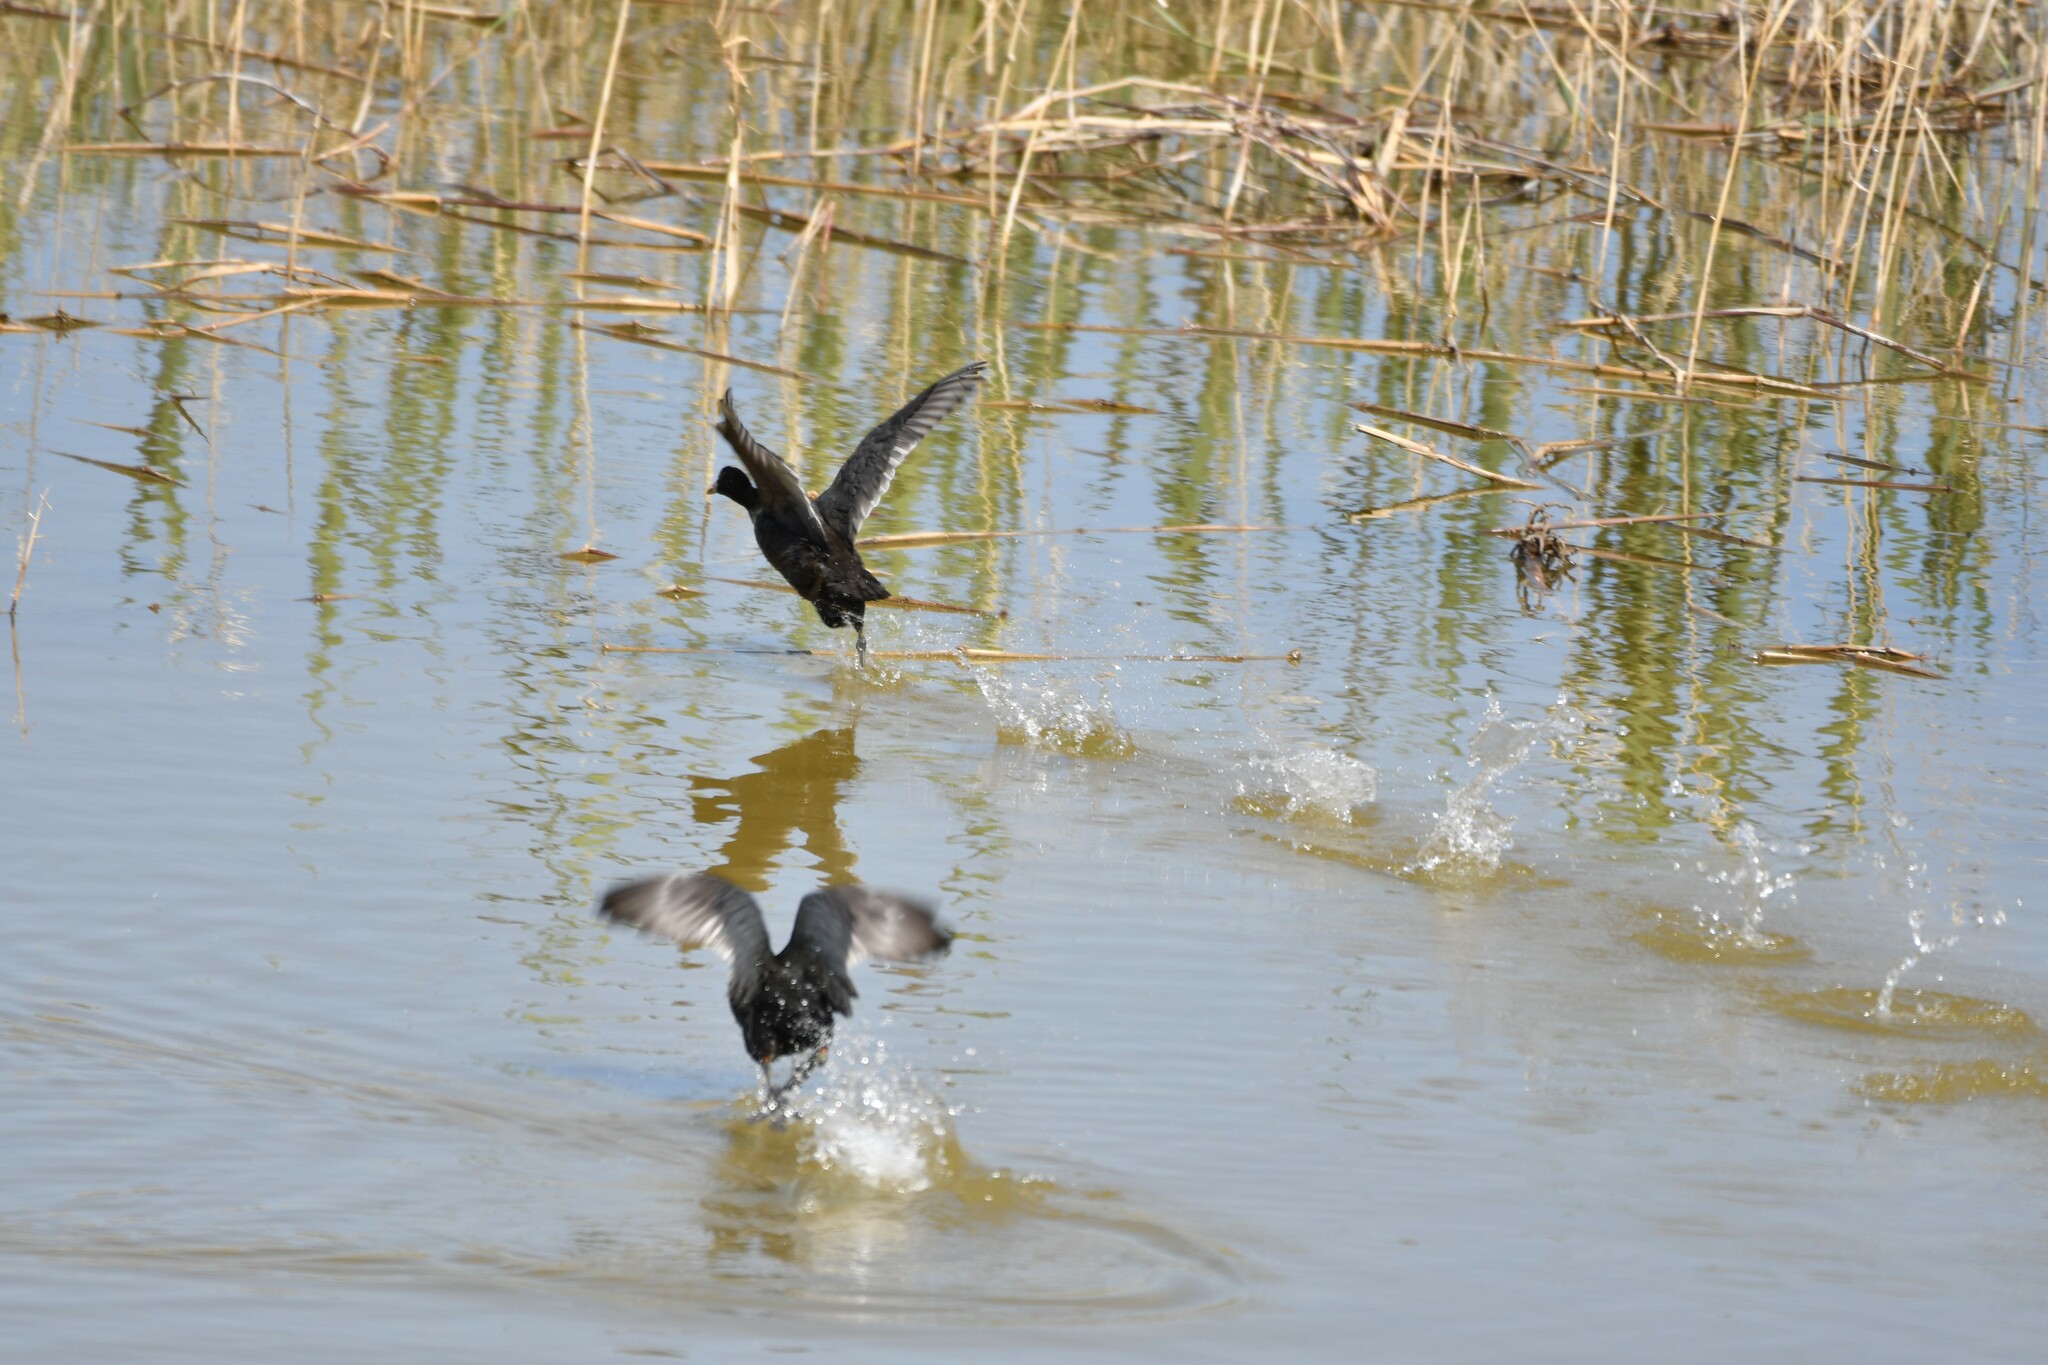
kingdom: Animalia
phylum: Chordata
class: Aves
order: Gruiformes
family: Rallidae
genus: Fulica
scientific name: Fulica atra
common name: Eurasian coot
